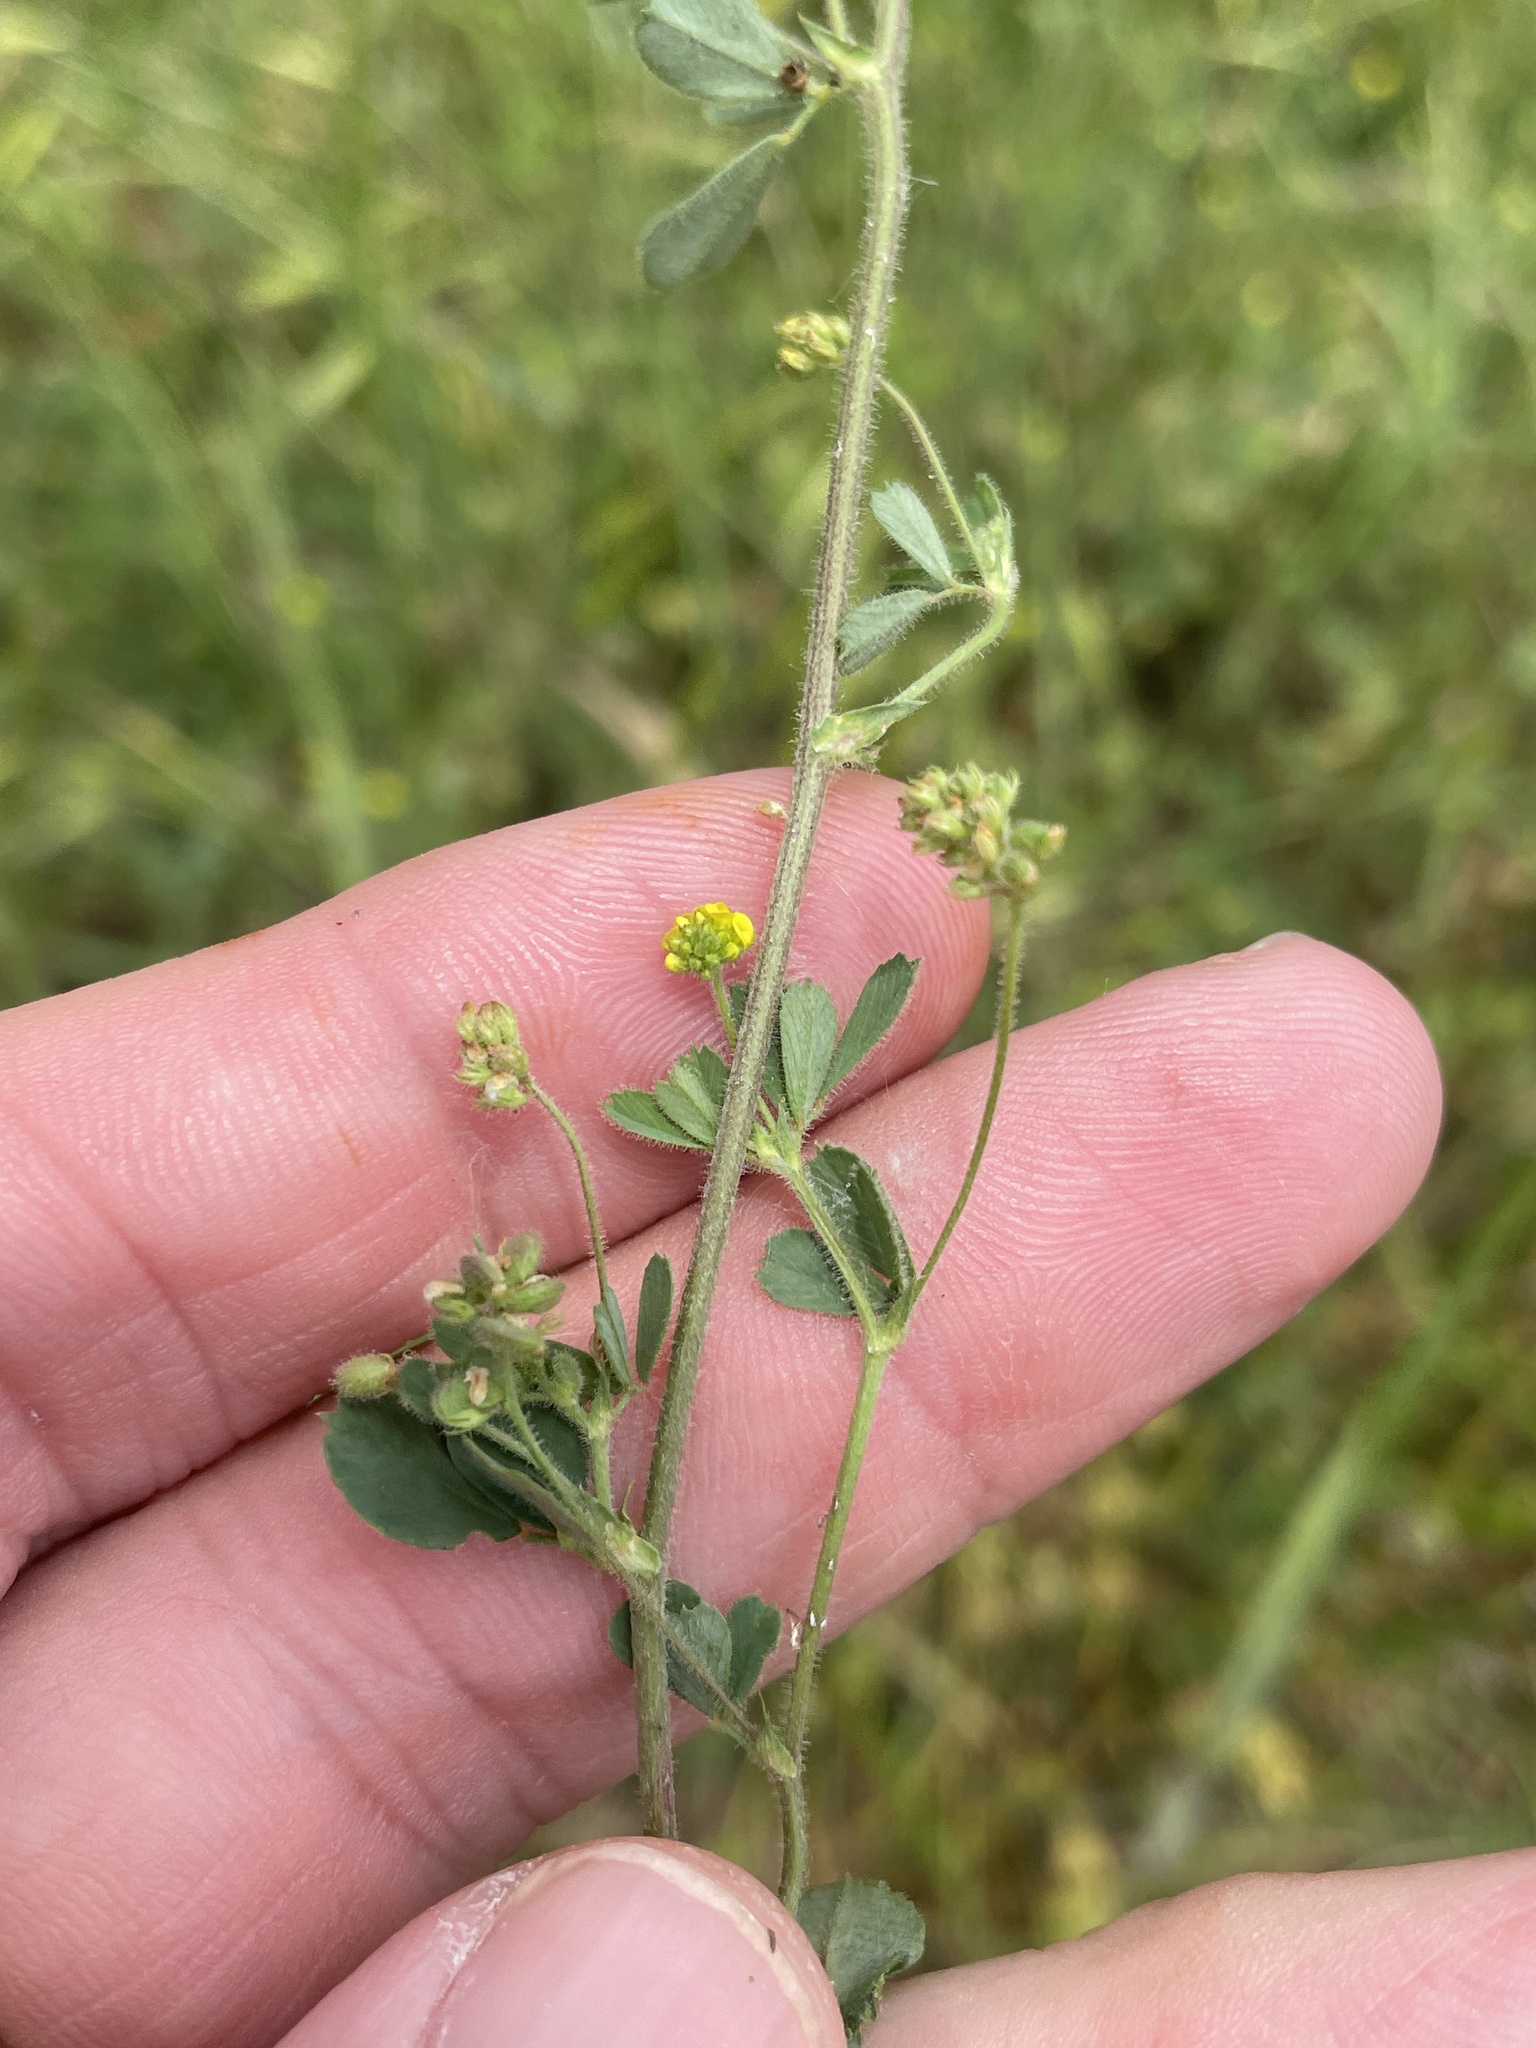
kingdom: Plantae
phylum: Tracheophyta
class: Magnoliopsida
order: Fabales
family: Fabaceae
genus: Medicago
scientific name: Medicago lupulina
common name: Black medick
